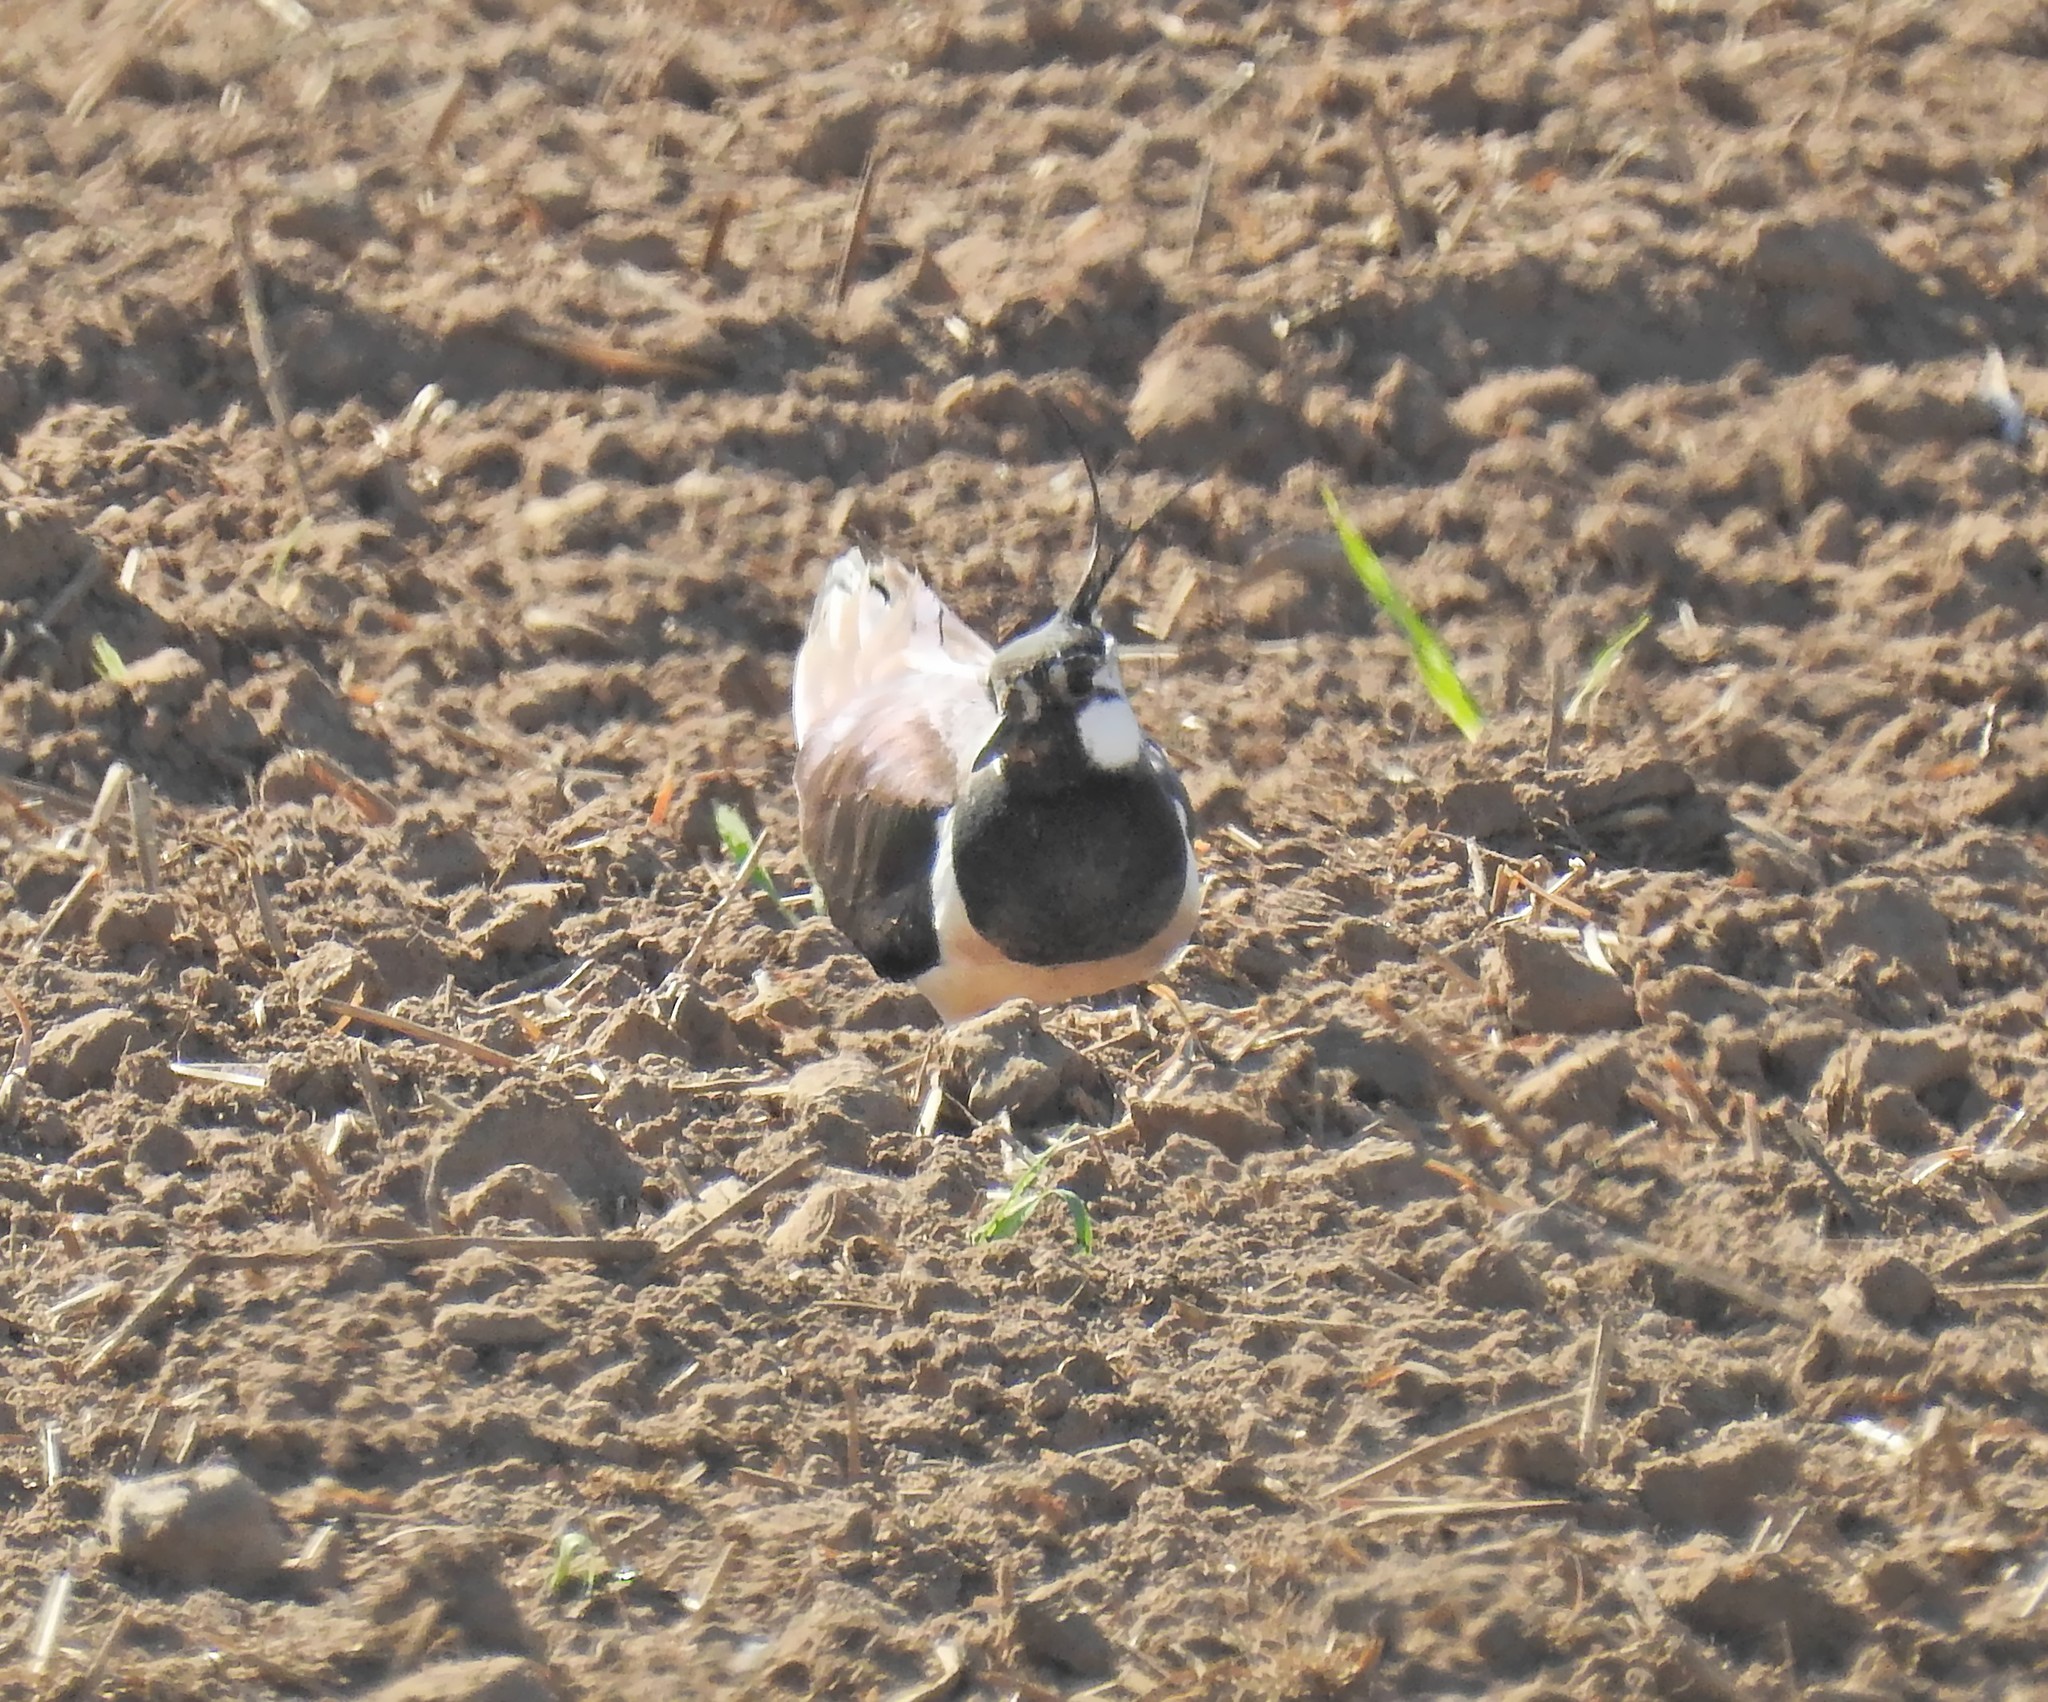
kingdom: Animalia
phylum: Chordata
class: Aves
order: Charadriiformes
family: Charadriidae
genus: Vanellus
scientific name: Vanellus vanellus
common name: Northern lapwing
